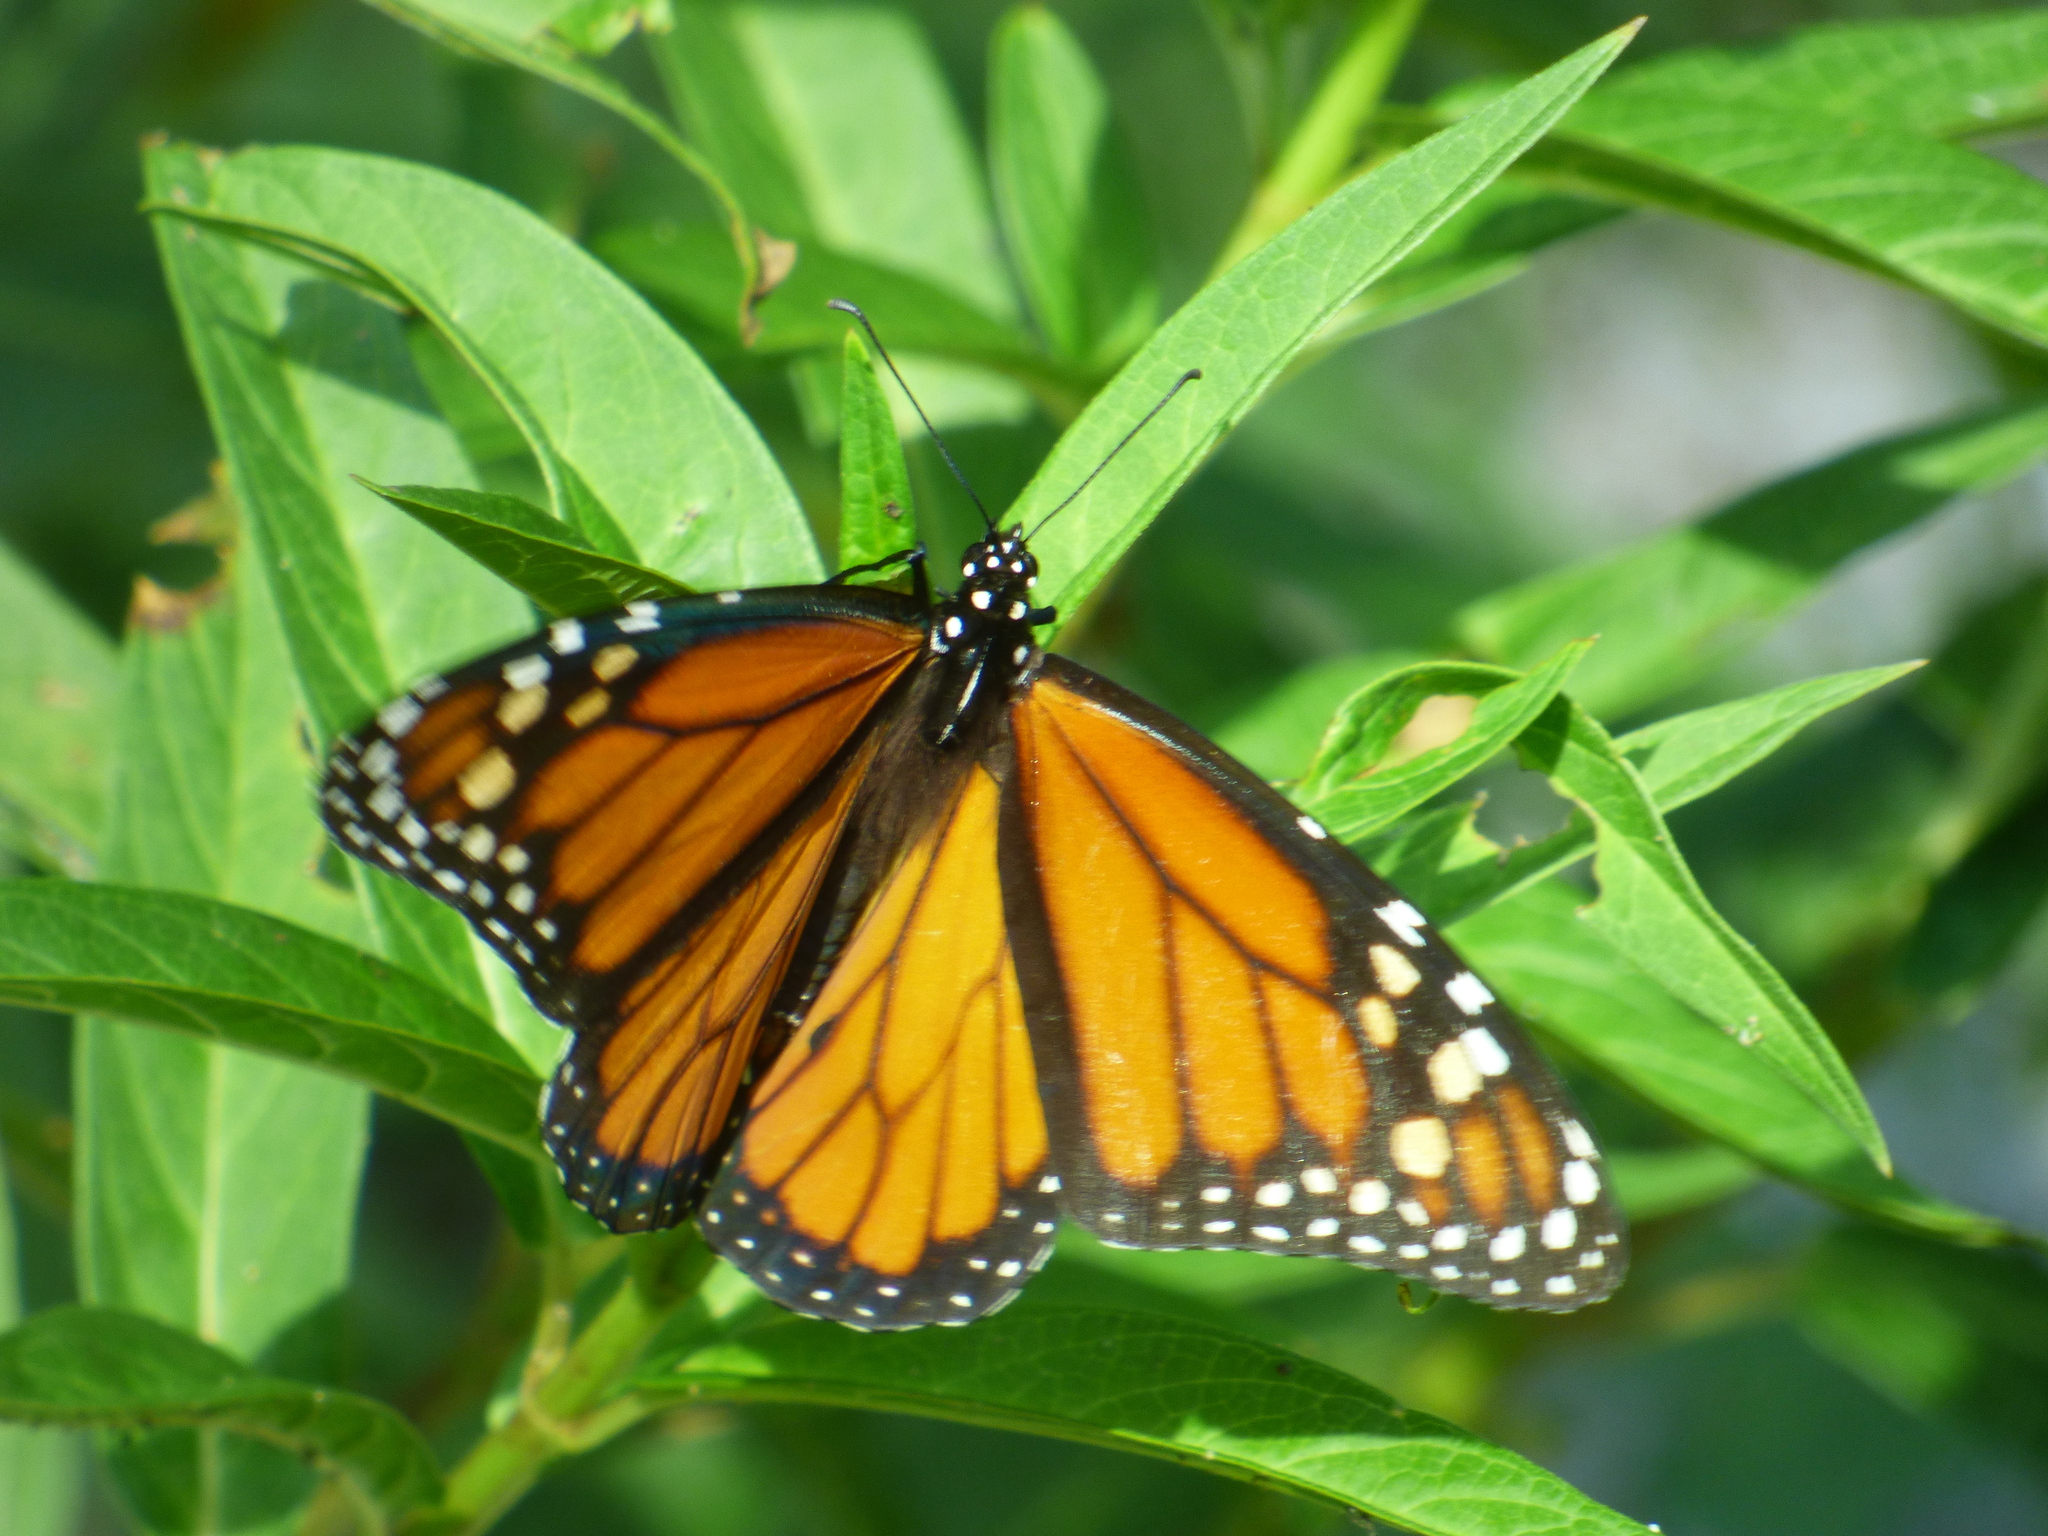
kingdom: Animalia
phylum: Arthropoda
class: Insecta
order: Lepidoptera
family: Nymphalidae
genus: Danaus
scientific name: Danaus plexippus
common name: Monarch
